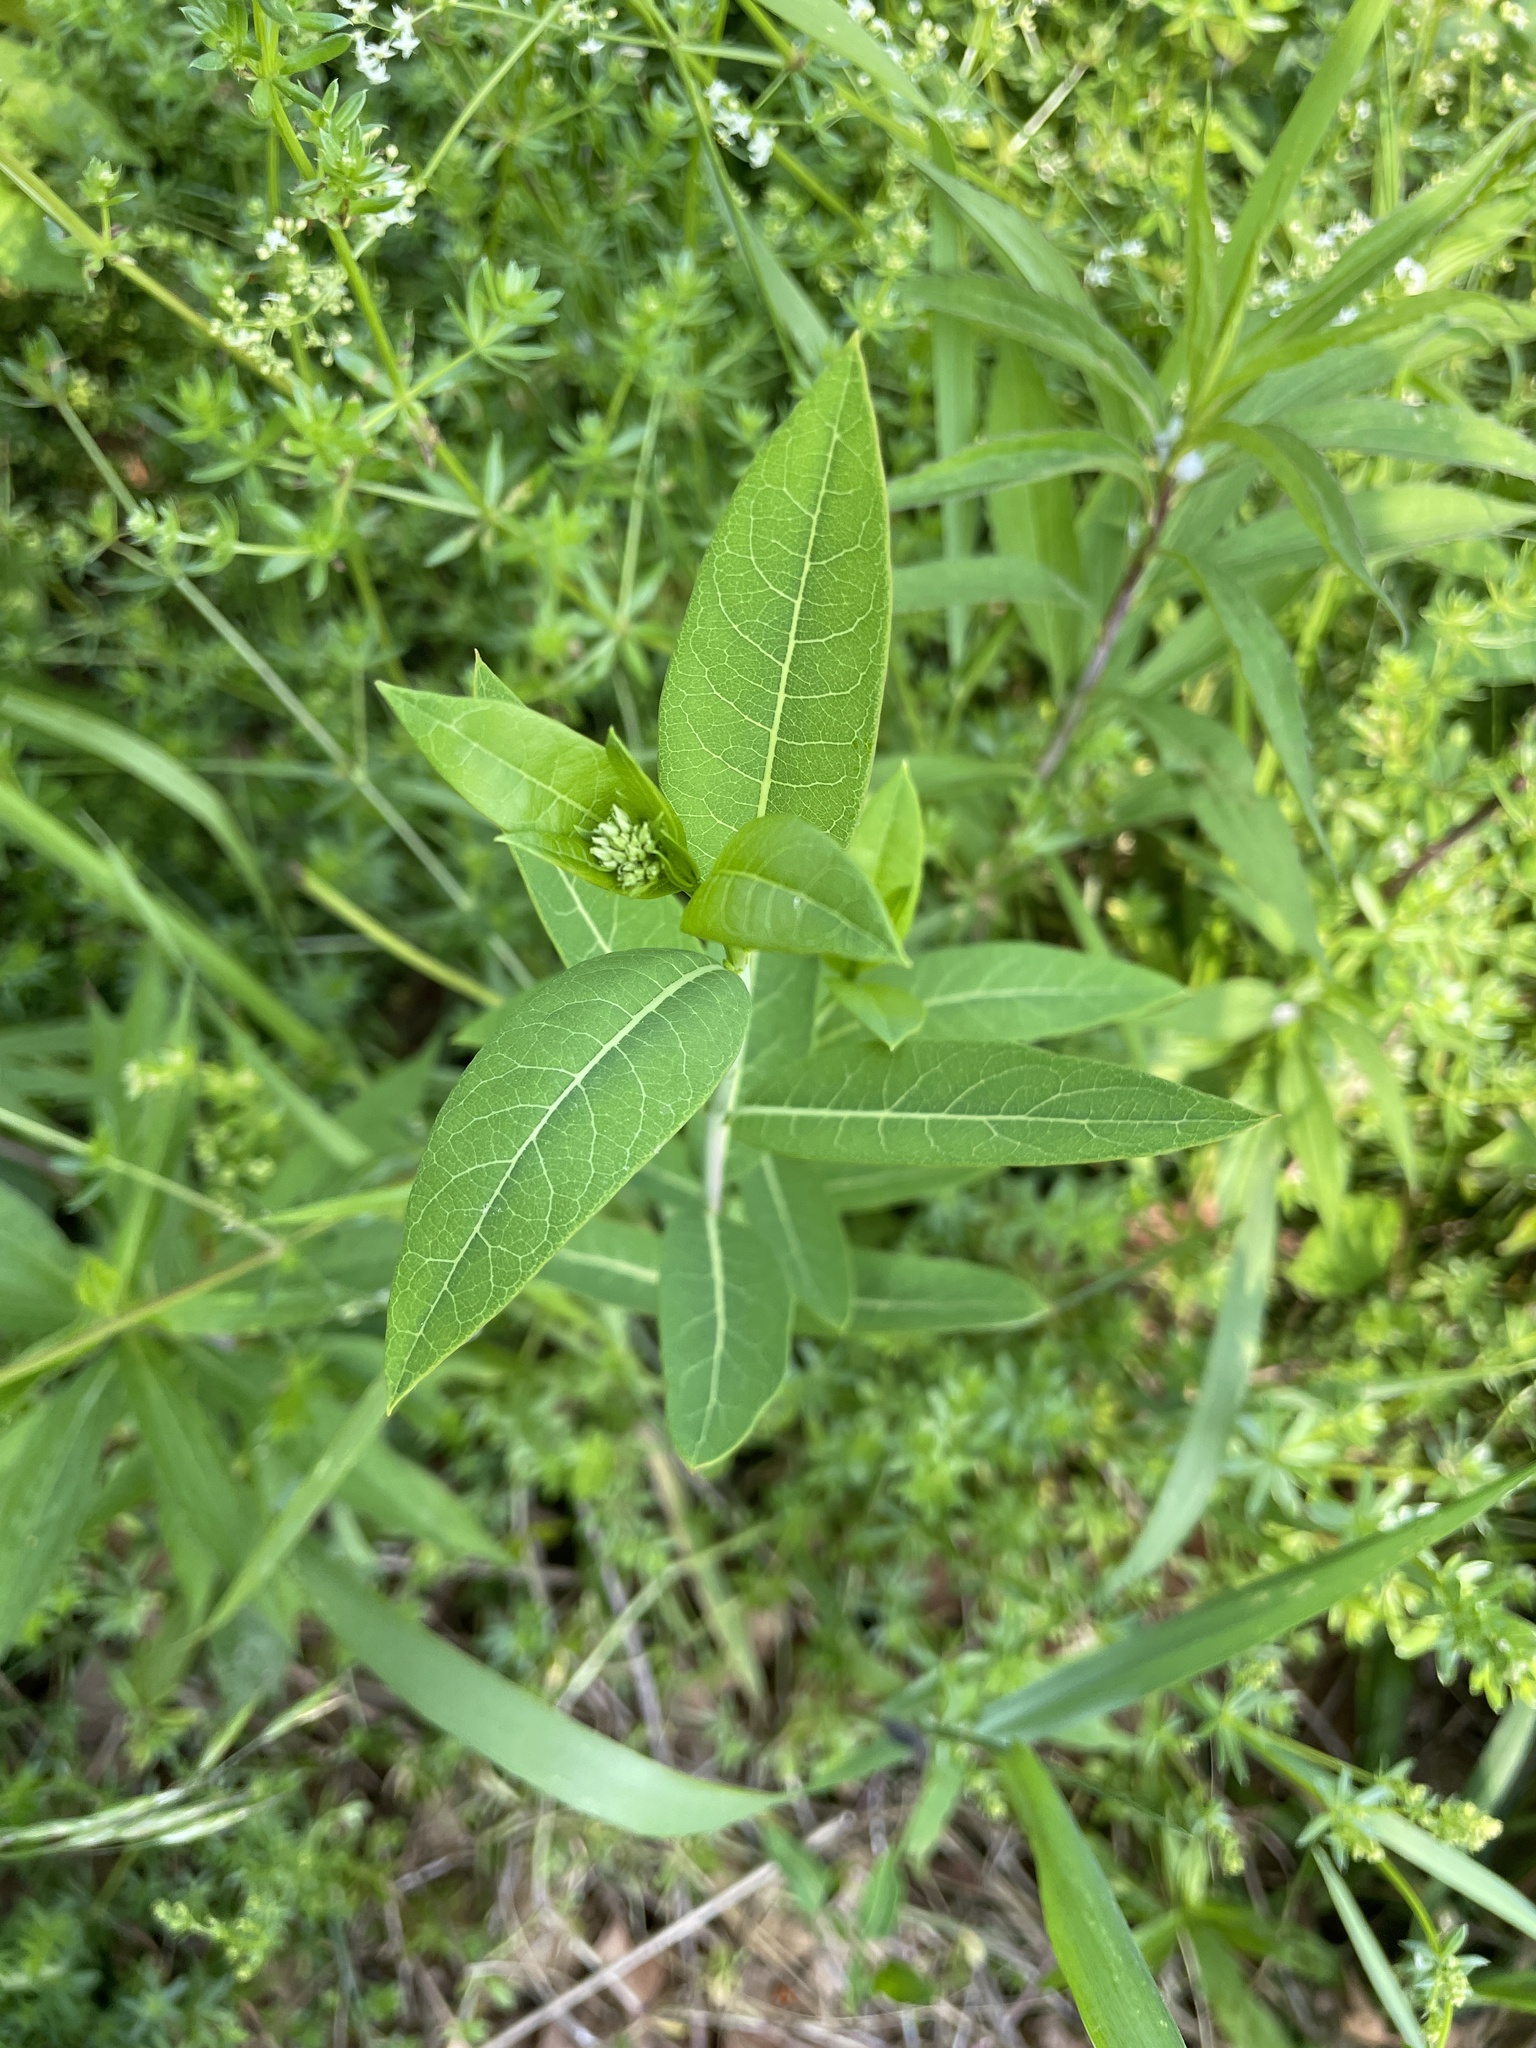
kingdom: Plantae
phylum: Tracheophyta
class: Magnoliopsida
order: Gentianales
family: Apocynaceae
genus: Apocynum
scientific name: Apocynum cannabinum
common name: Hemp dogbane
